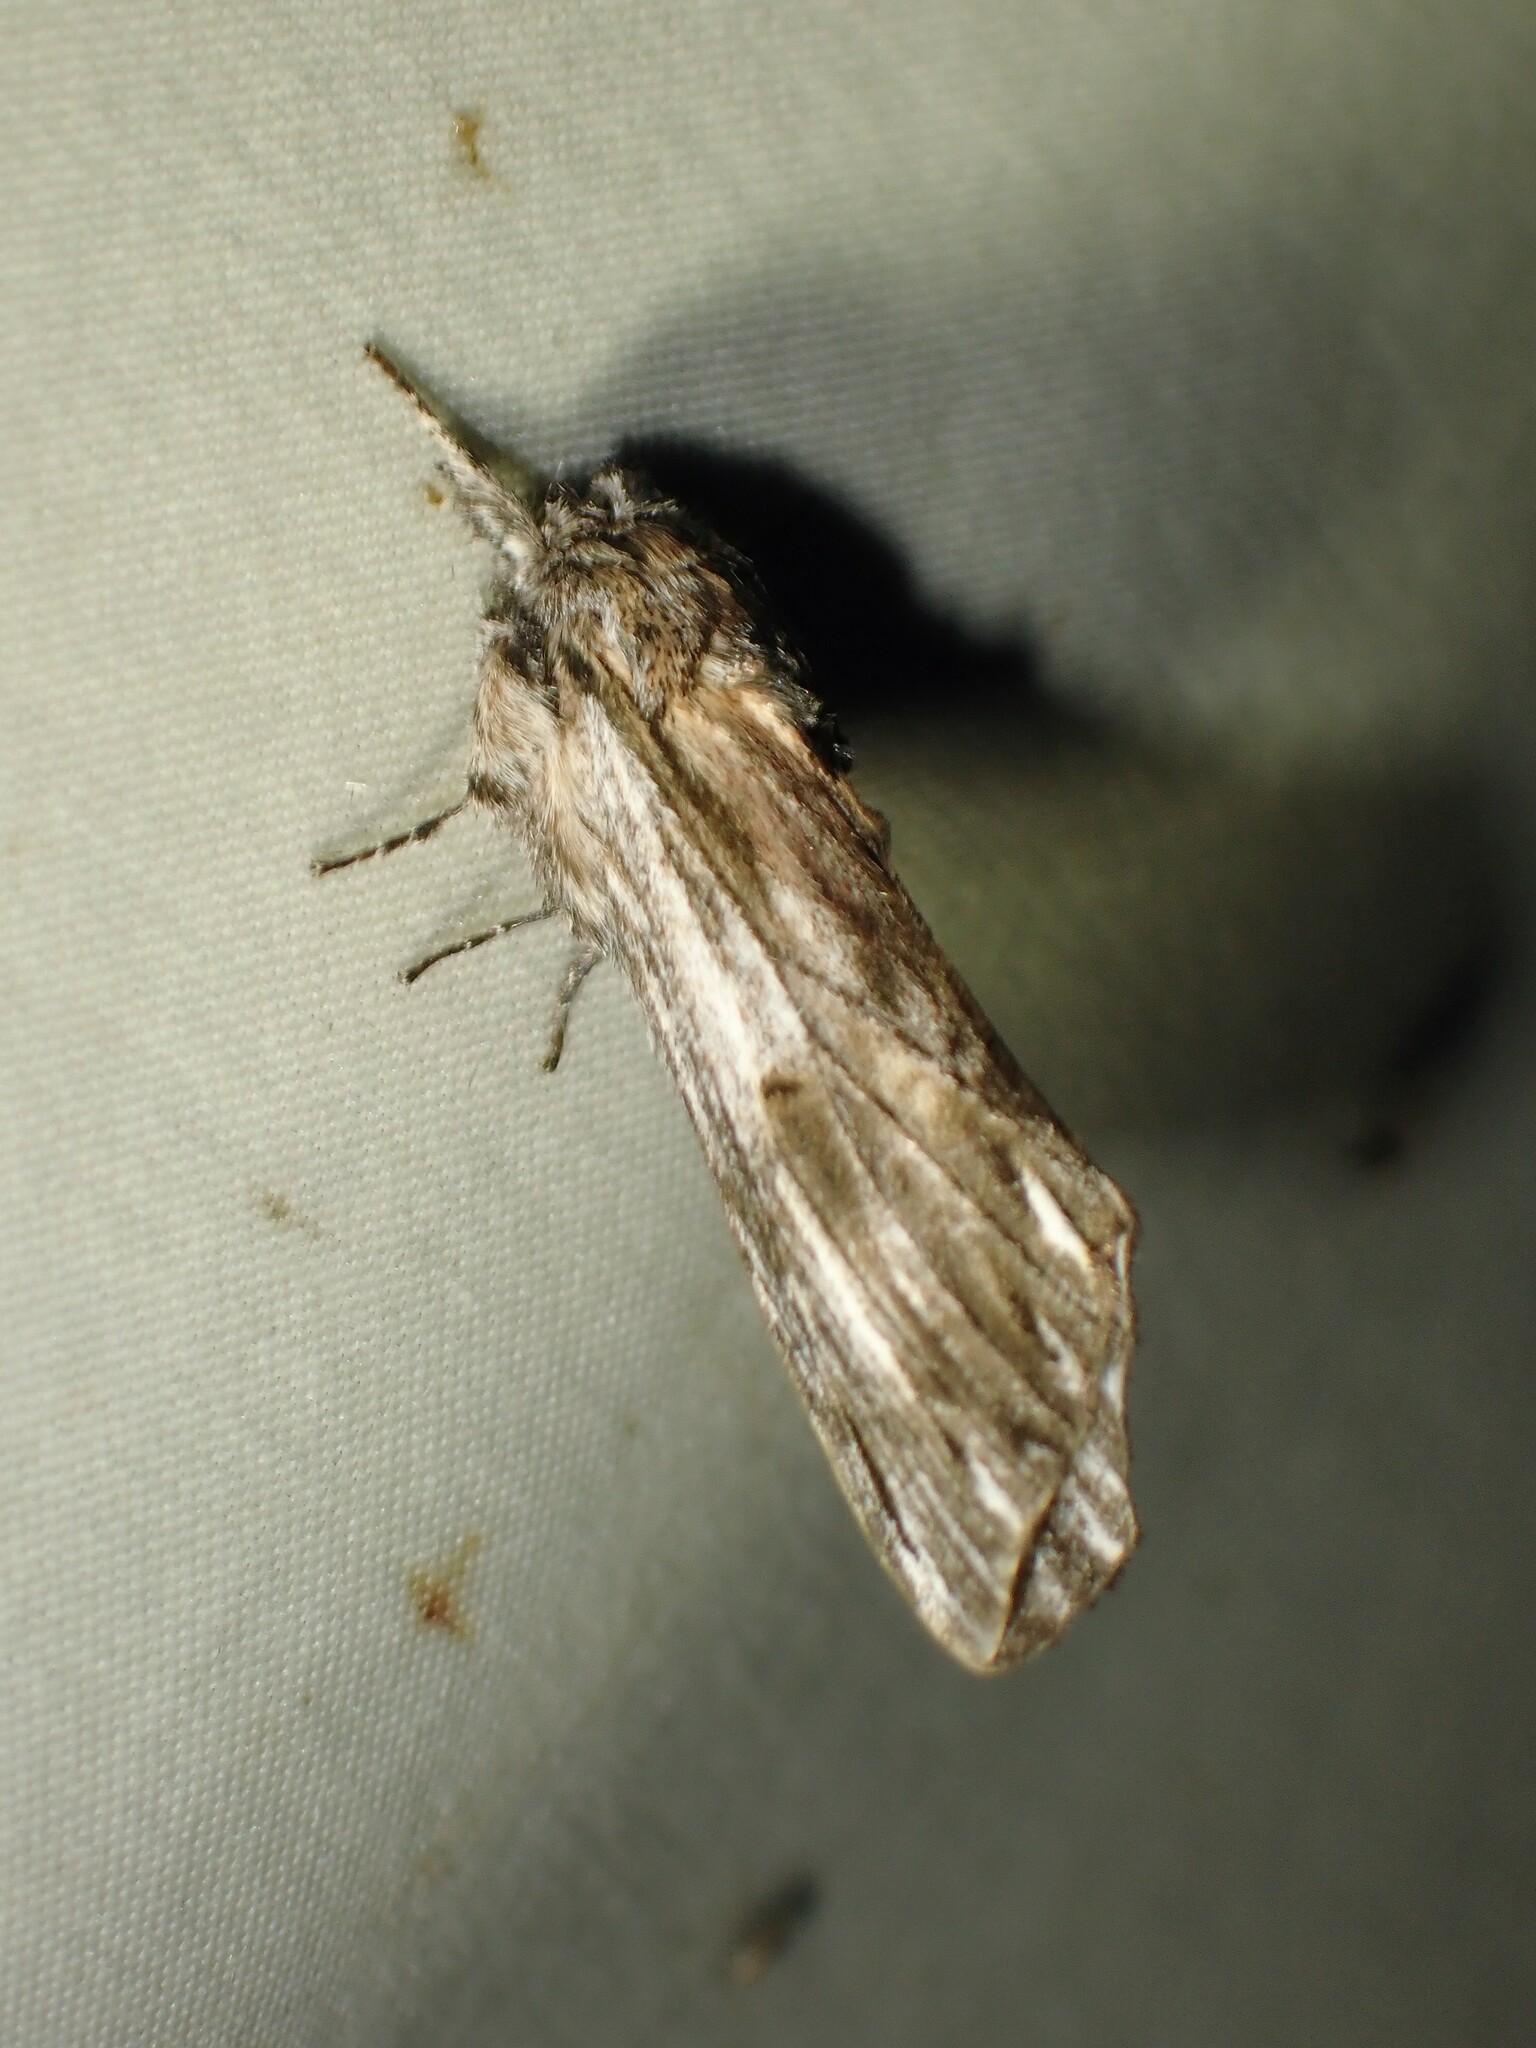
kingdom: Animalia
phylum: Arthropoda
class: Insecta
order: Lepidoptera
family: Notodontidae
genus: Oligocentria
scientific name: Oligocentria Ianassa lignicolor
